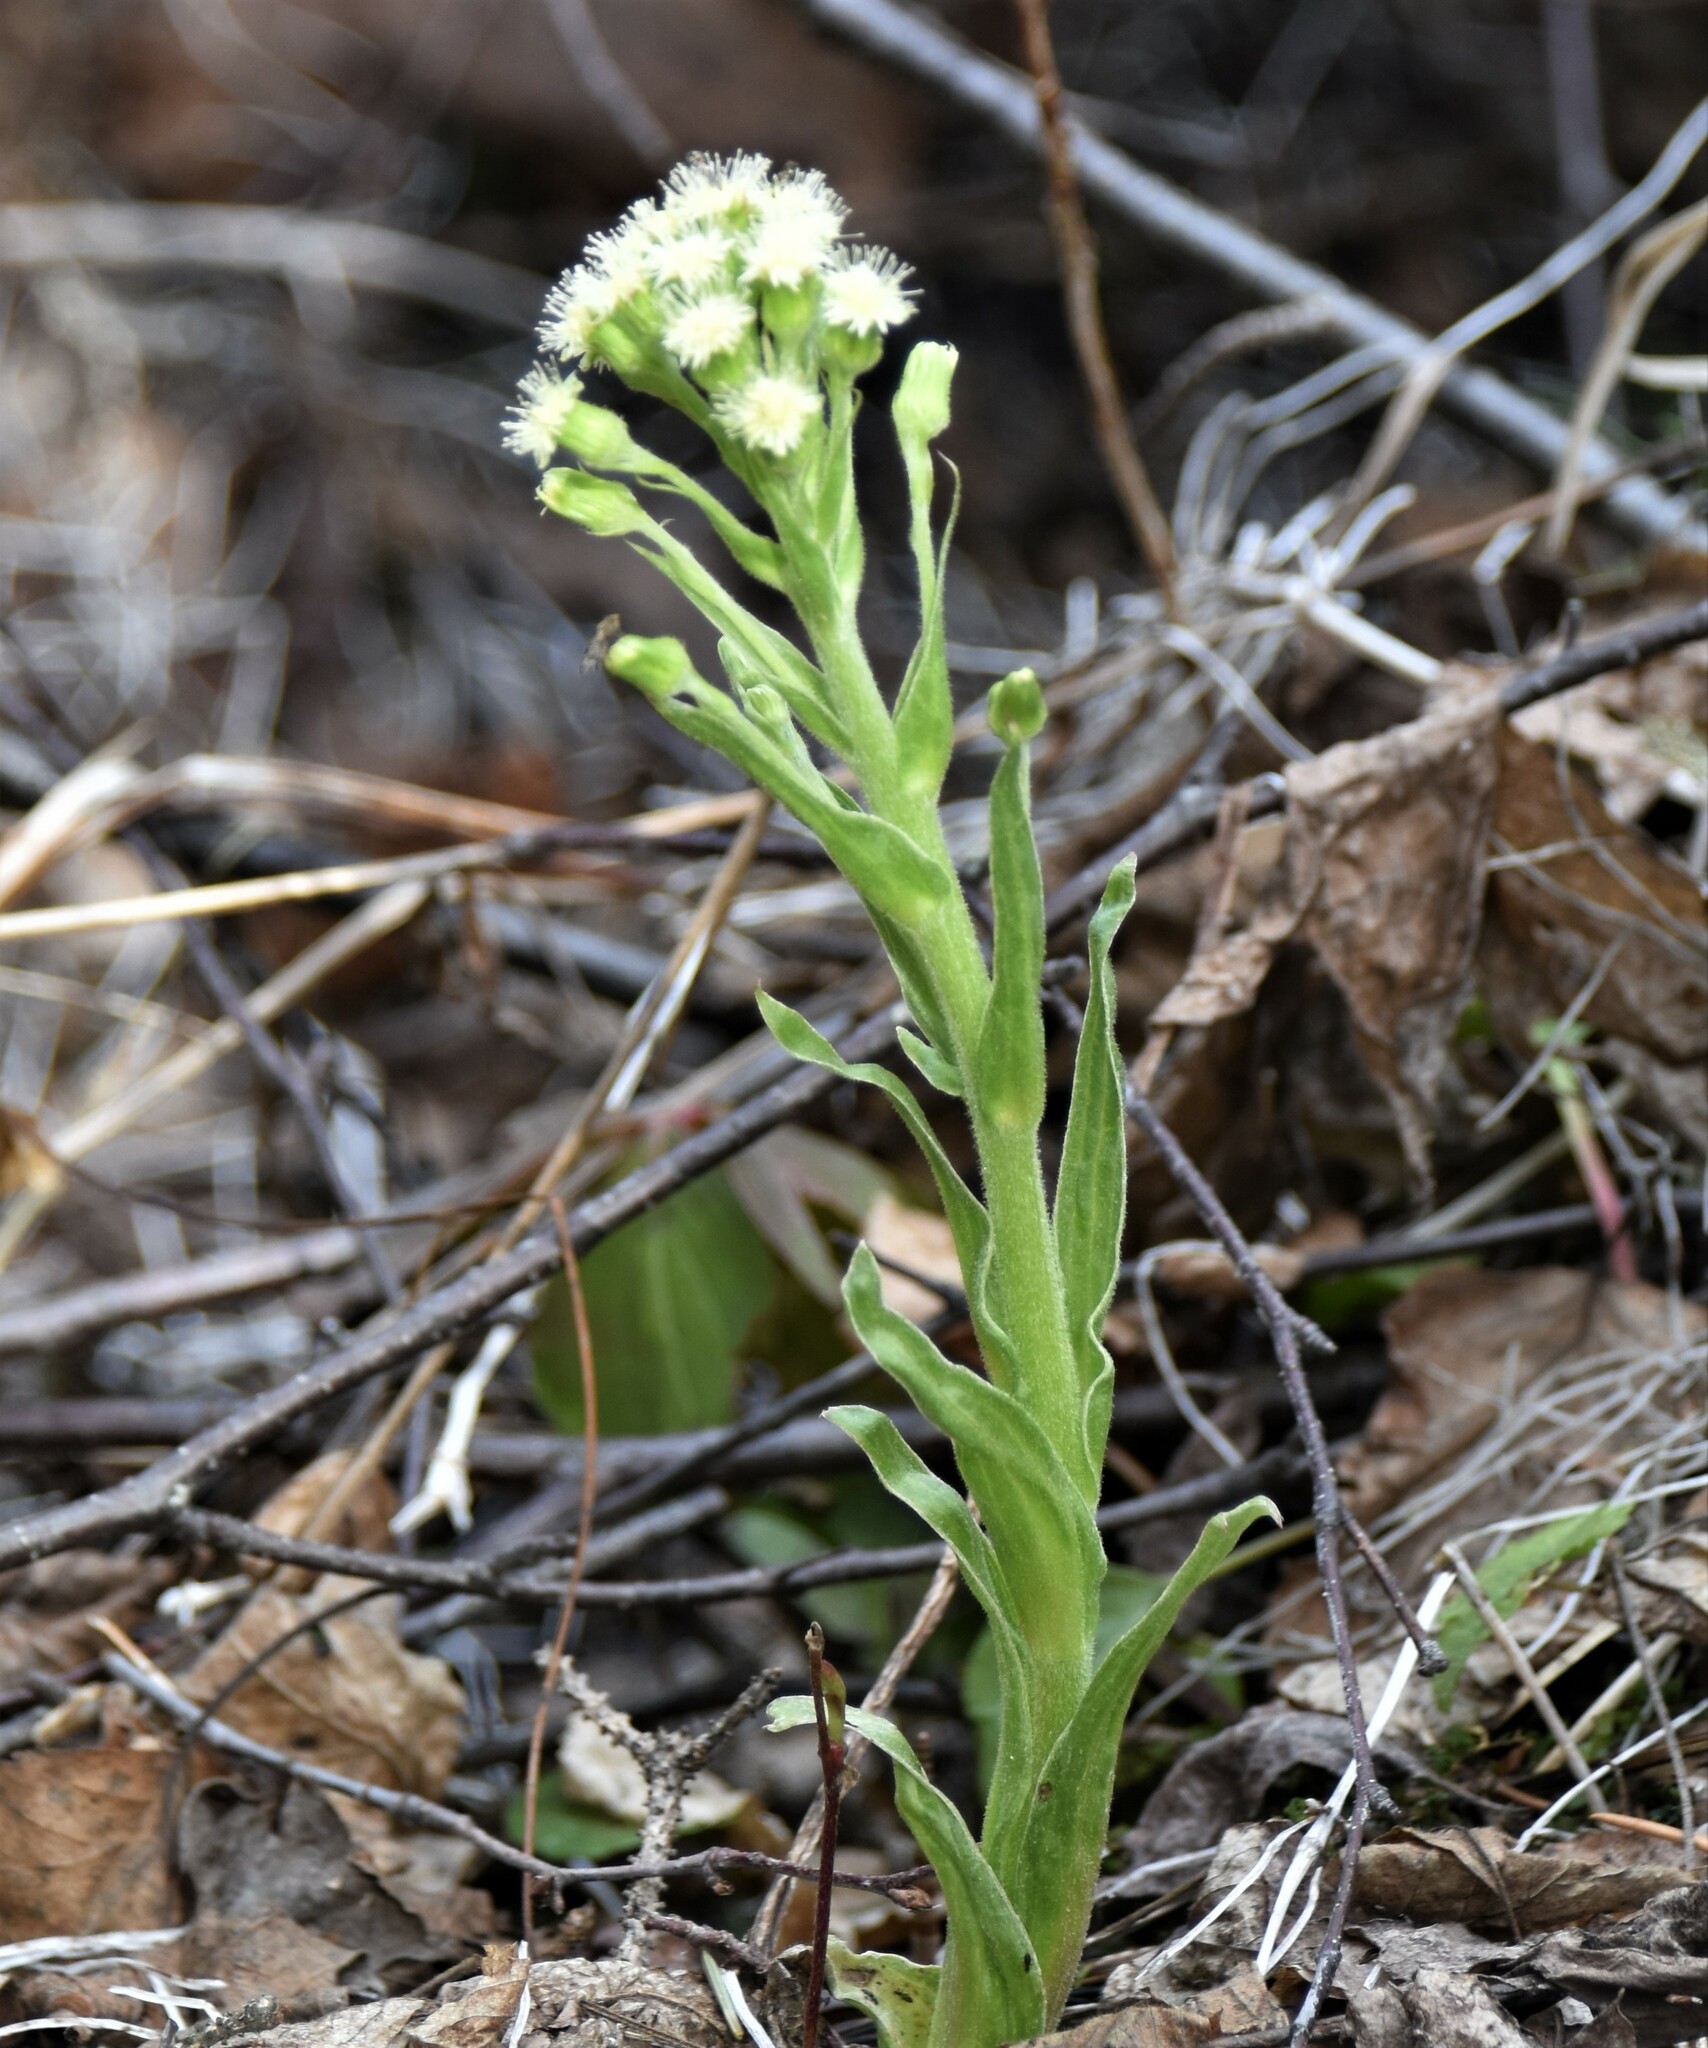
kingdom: Plantae
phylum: Tracheophyta
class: Magnoliopsida
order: Asterales
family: Asteraceae
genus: Petasites
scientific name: Petasites frigidus
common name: Arctic butterbur
